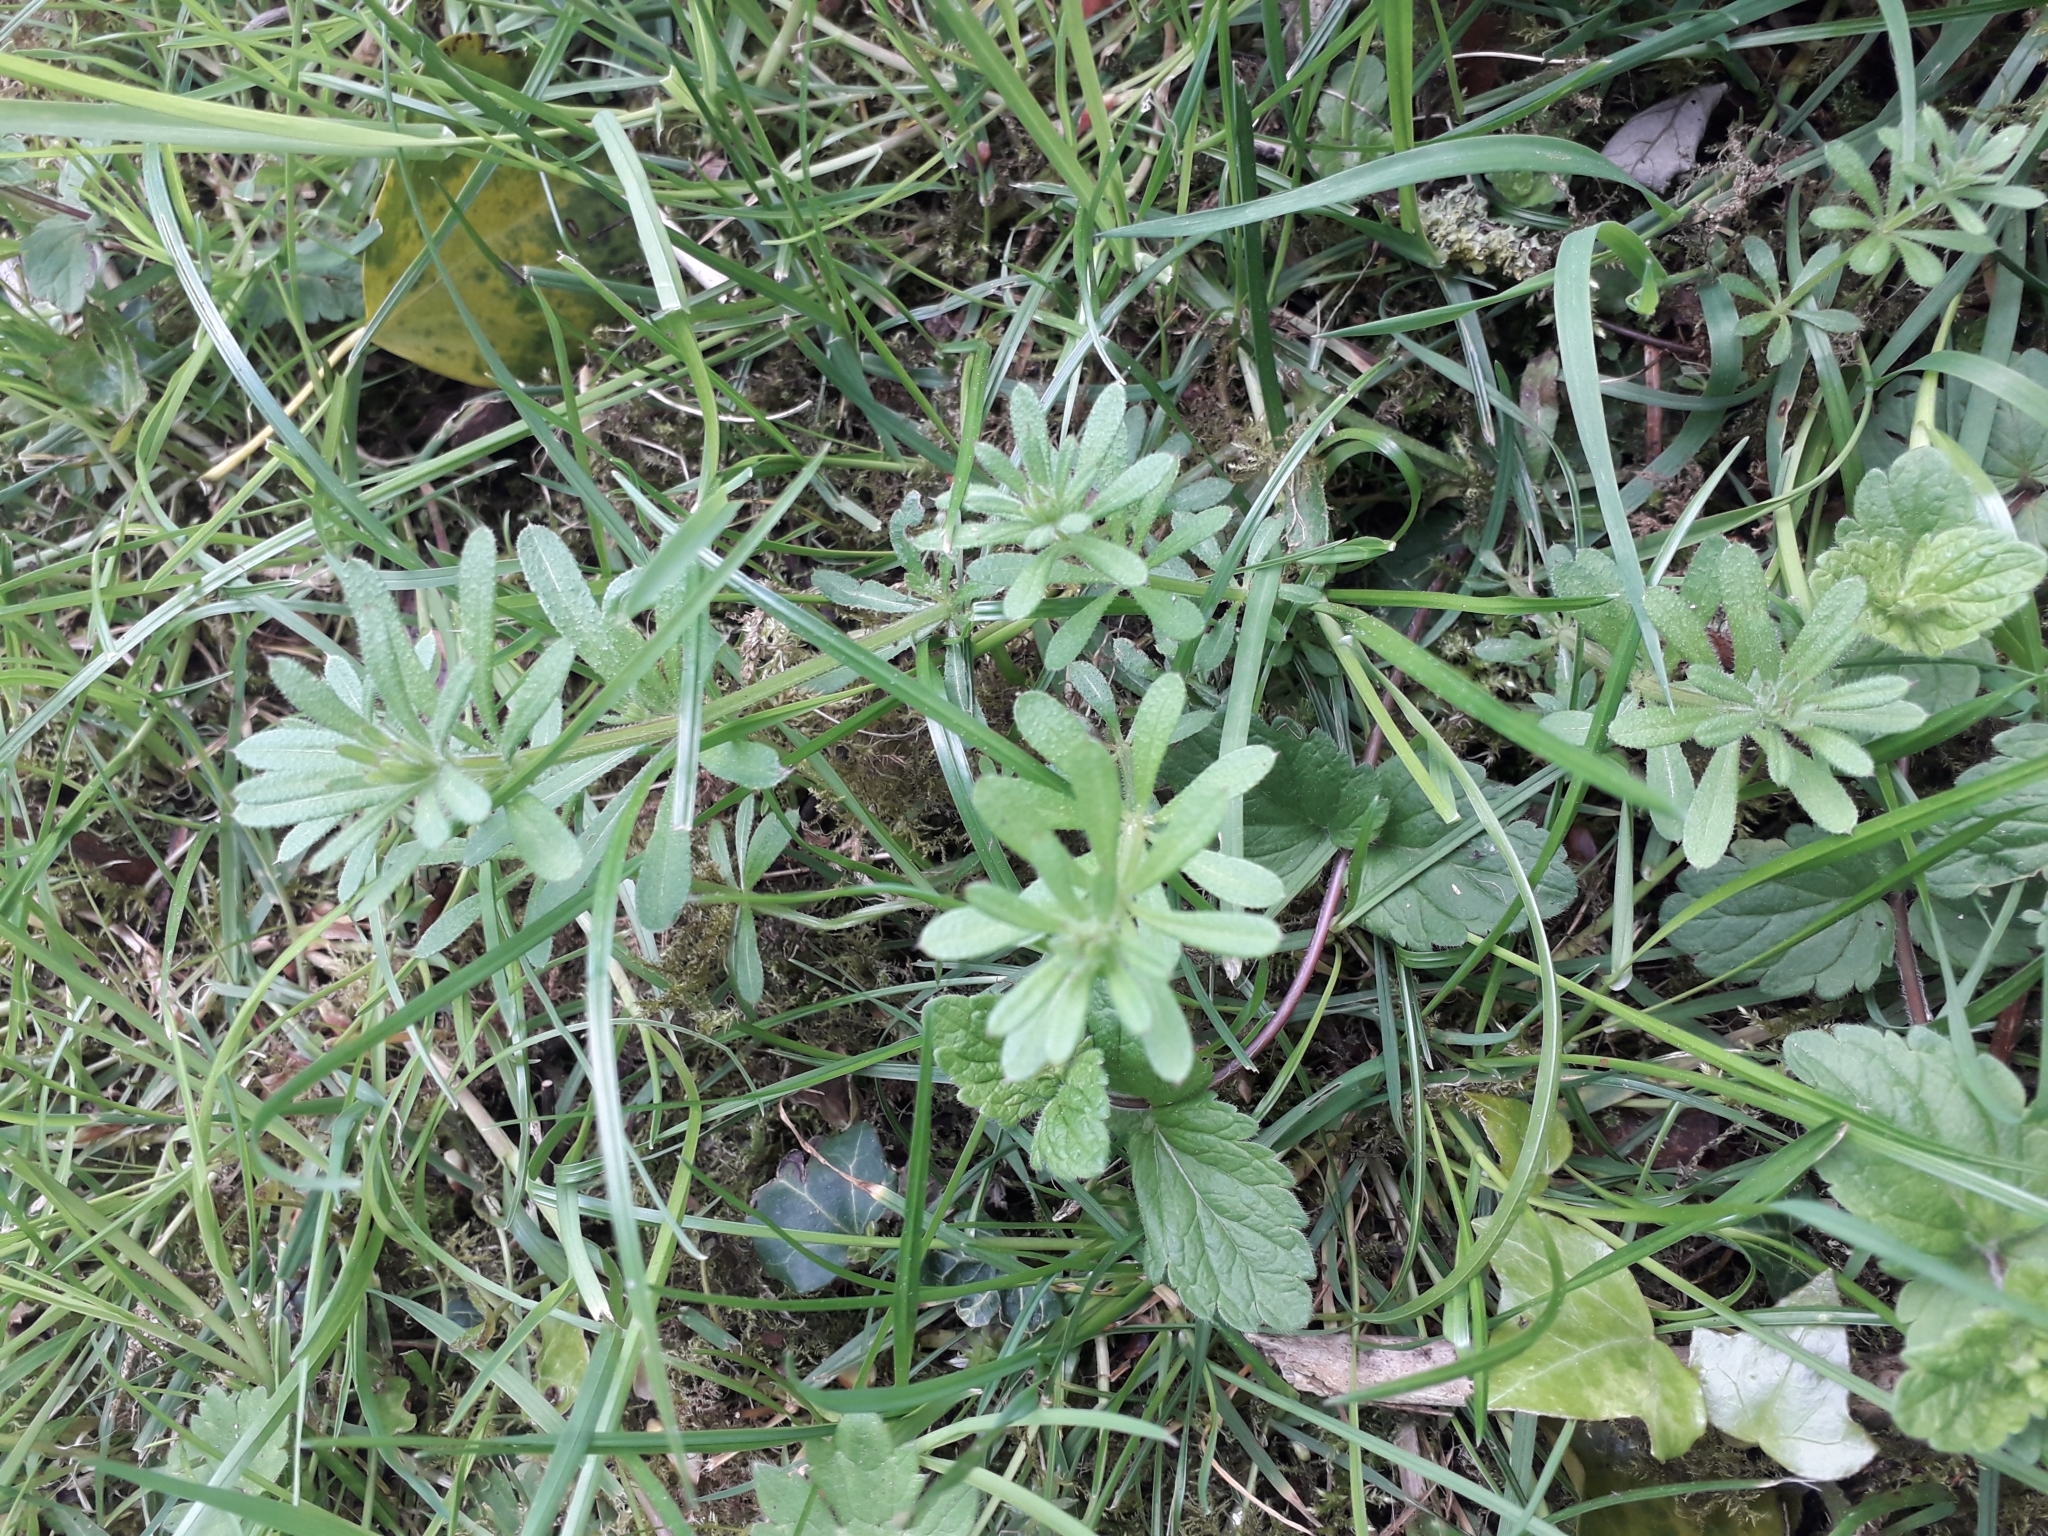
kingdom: Plantae
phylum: Tracheophyta
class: Magnoliopsida
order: Gentianales
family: Rubiaceae
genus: Galium
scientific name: Galium aparine
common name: Cleavers
